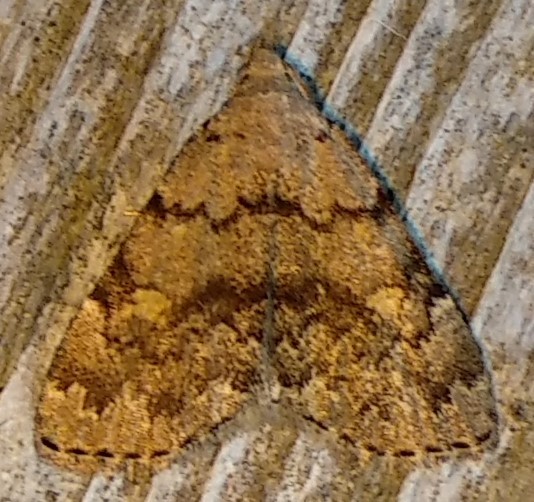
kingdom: Animalia
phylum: Arthropoda
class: Insecta
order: Lepidoptera
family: Erebidae
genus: Idia
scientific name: Idia aemula
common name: Common idia moth
